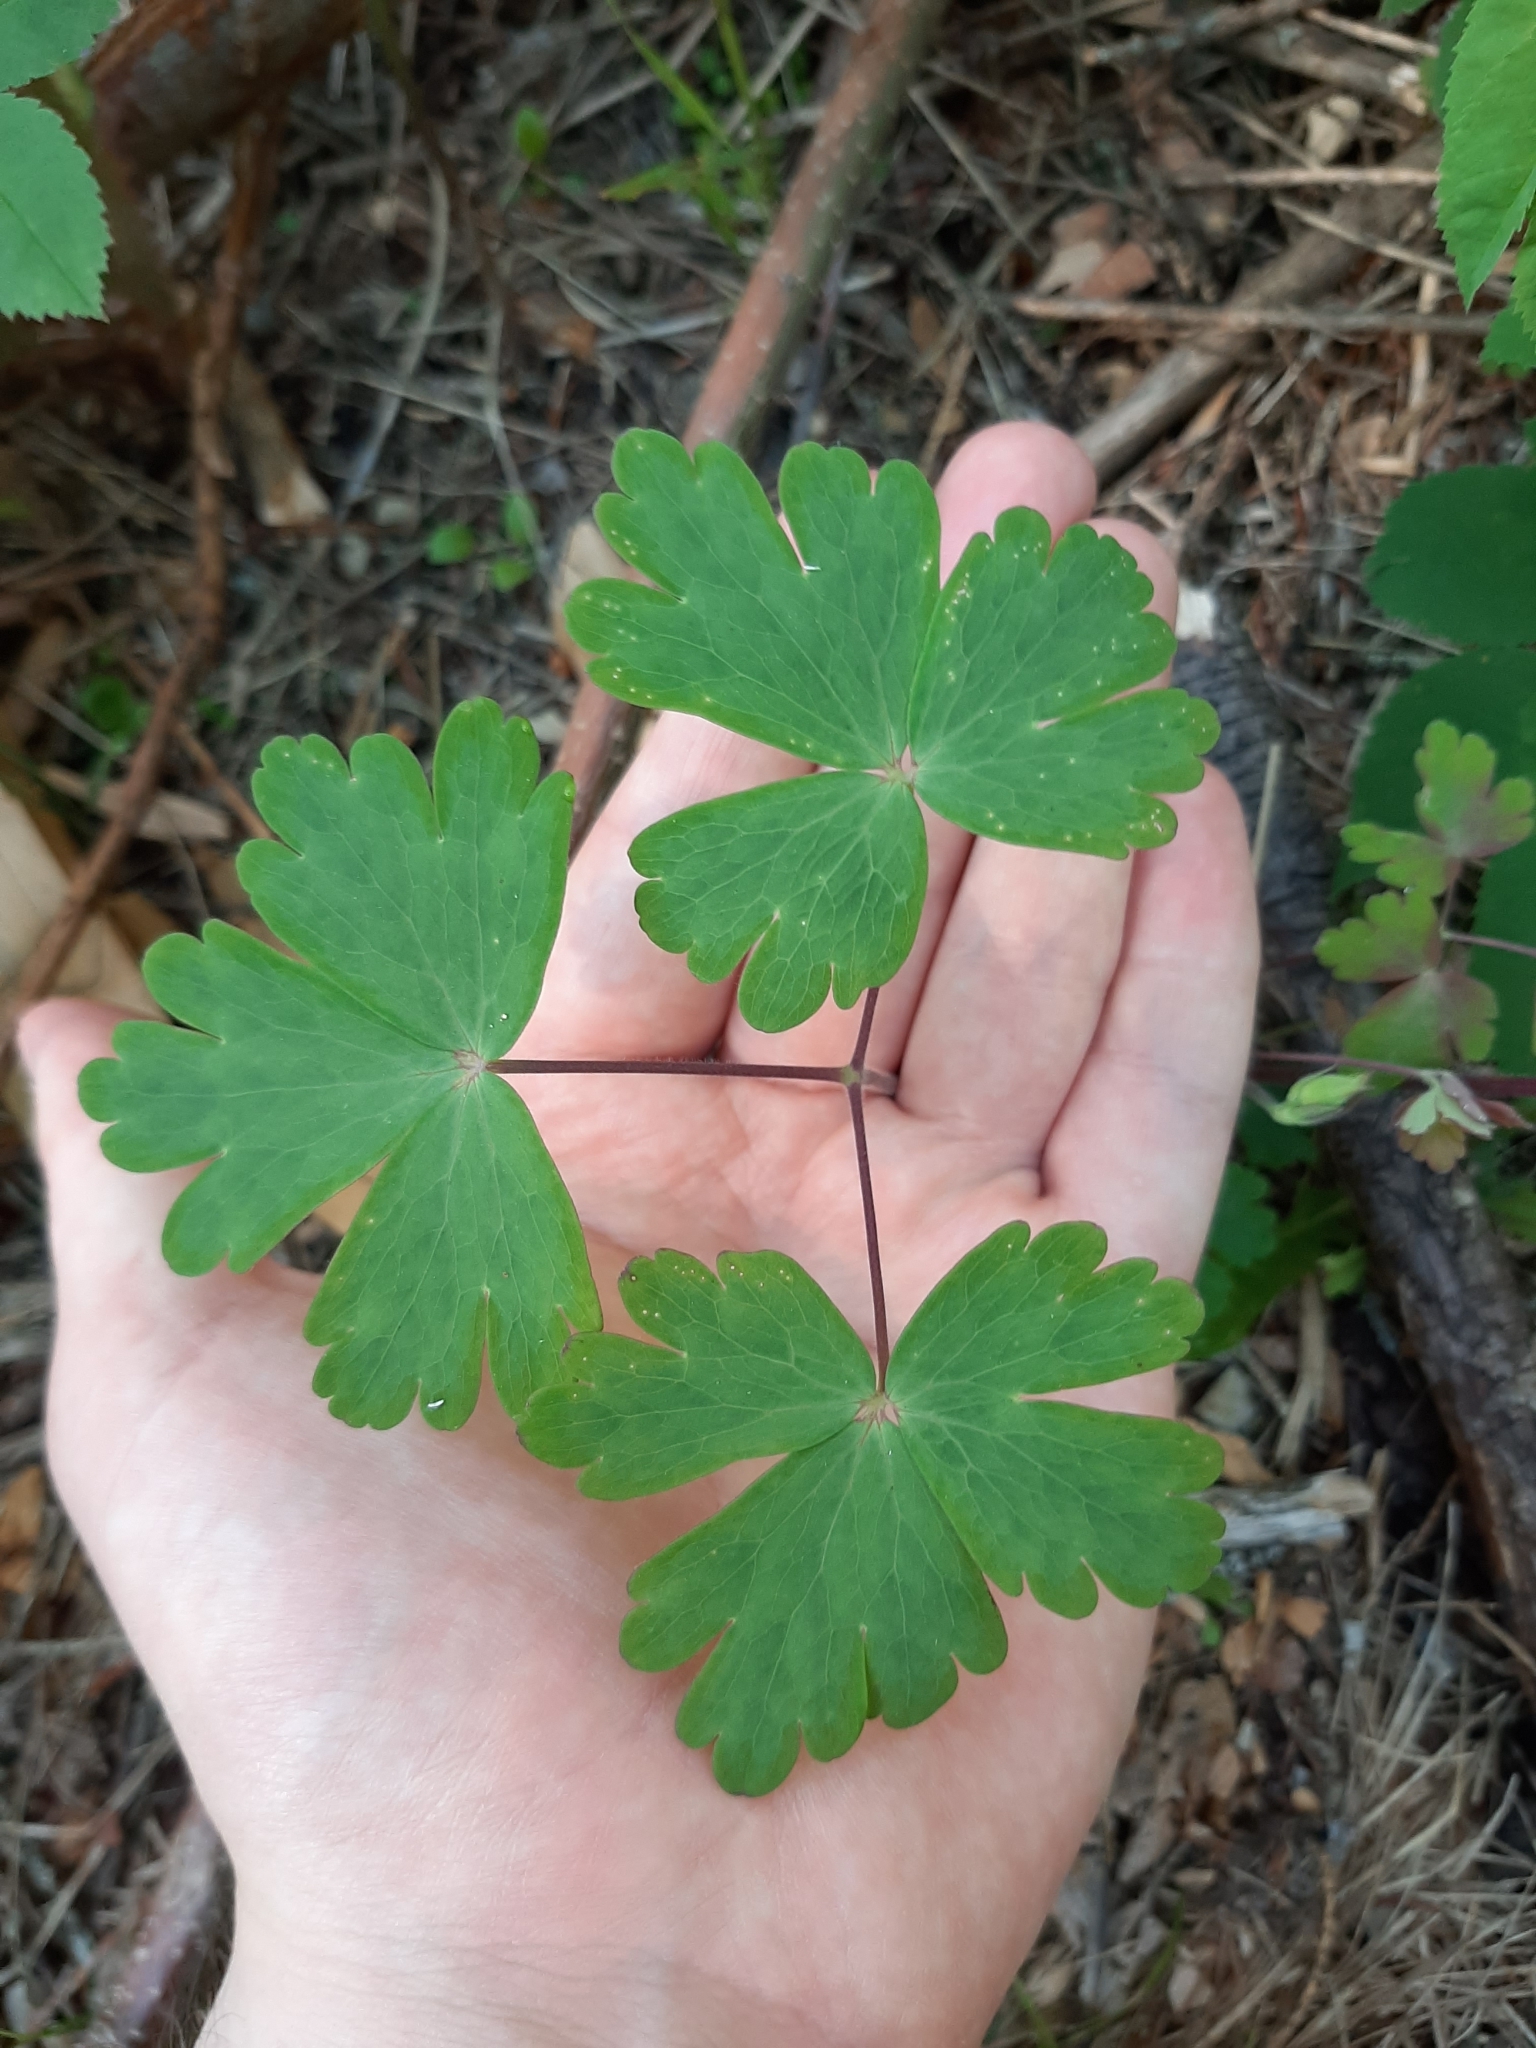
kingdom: Plantae
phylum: Tracheophyta
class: Magnoliopsida
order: Ranunculales
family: Ranunculaceae
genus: Aquilegia
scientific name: Aquilegia brevistyla
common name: Yukon columbine
